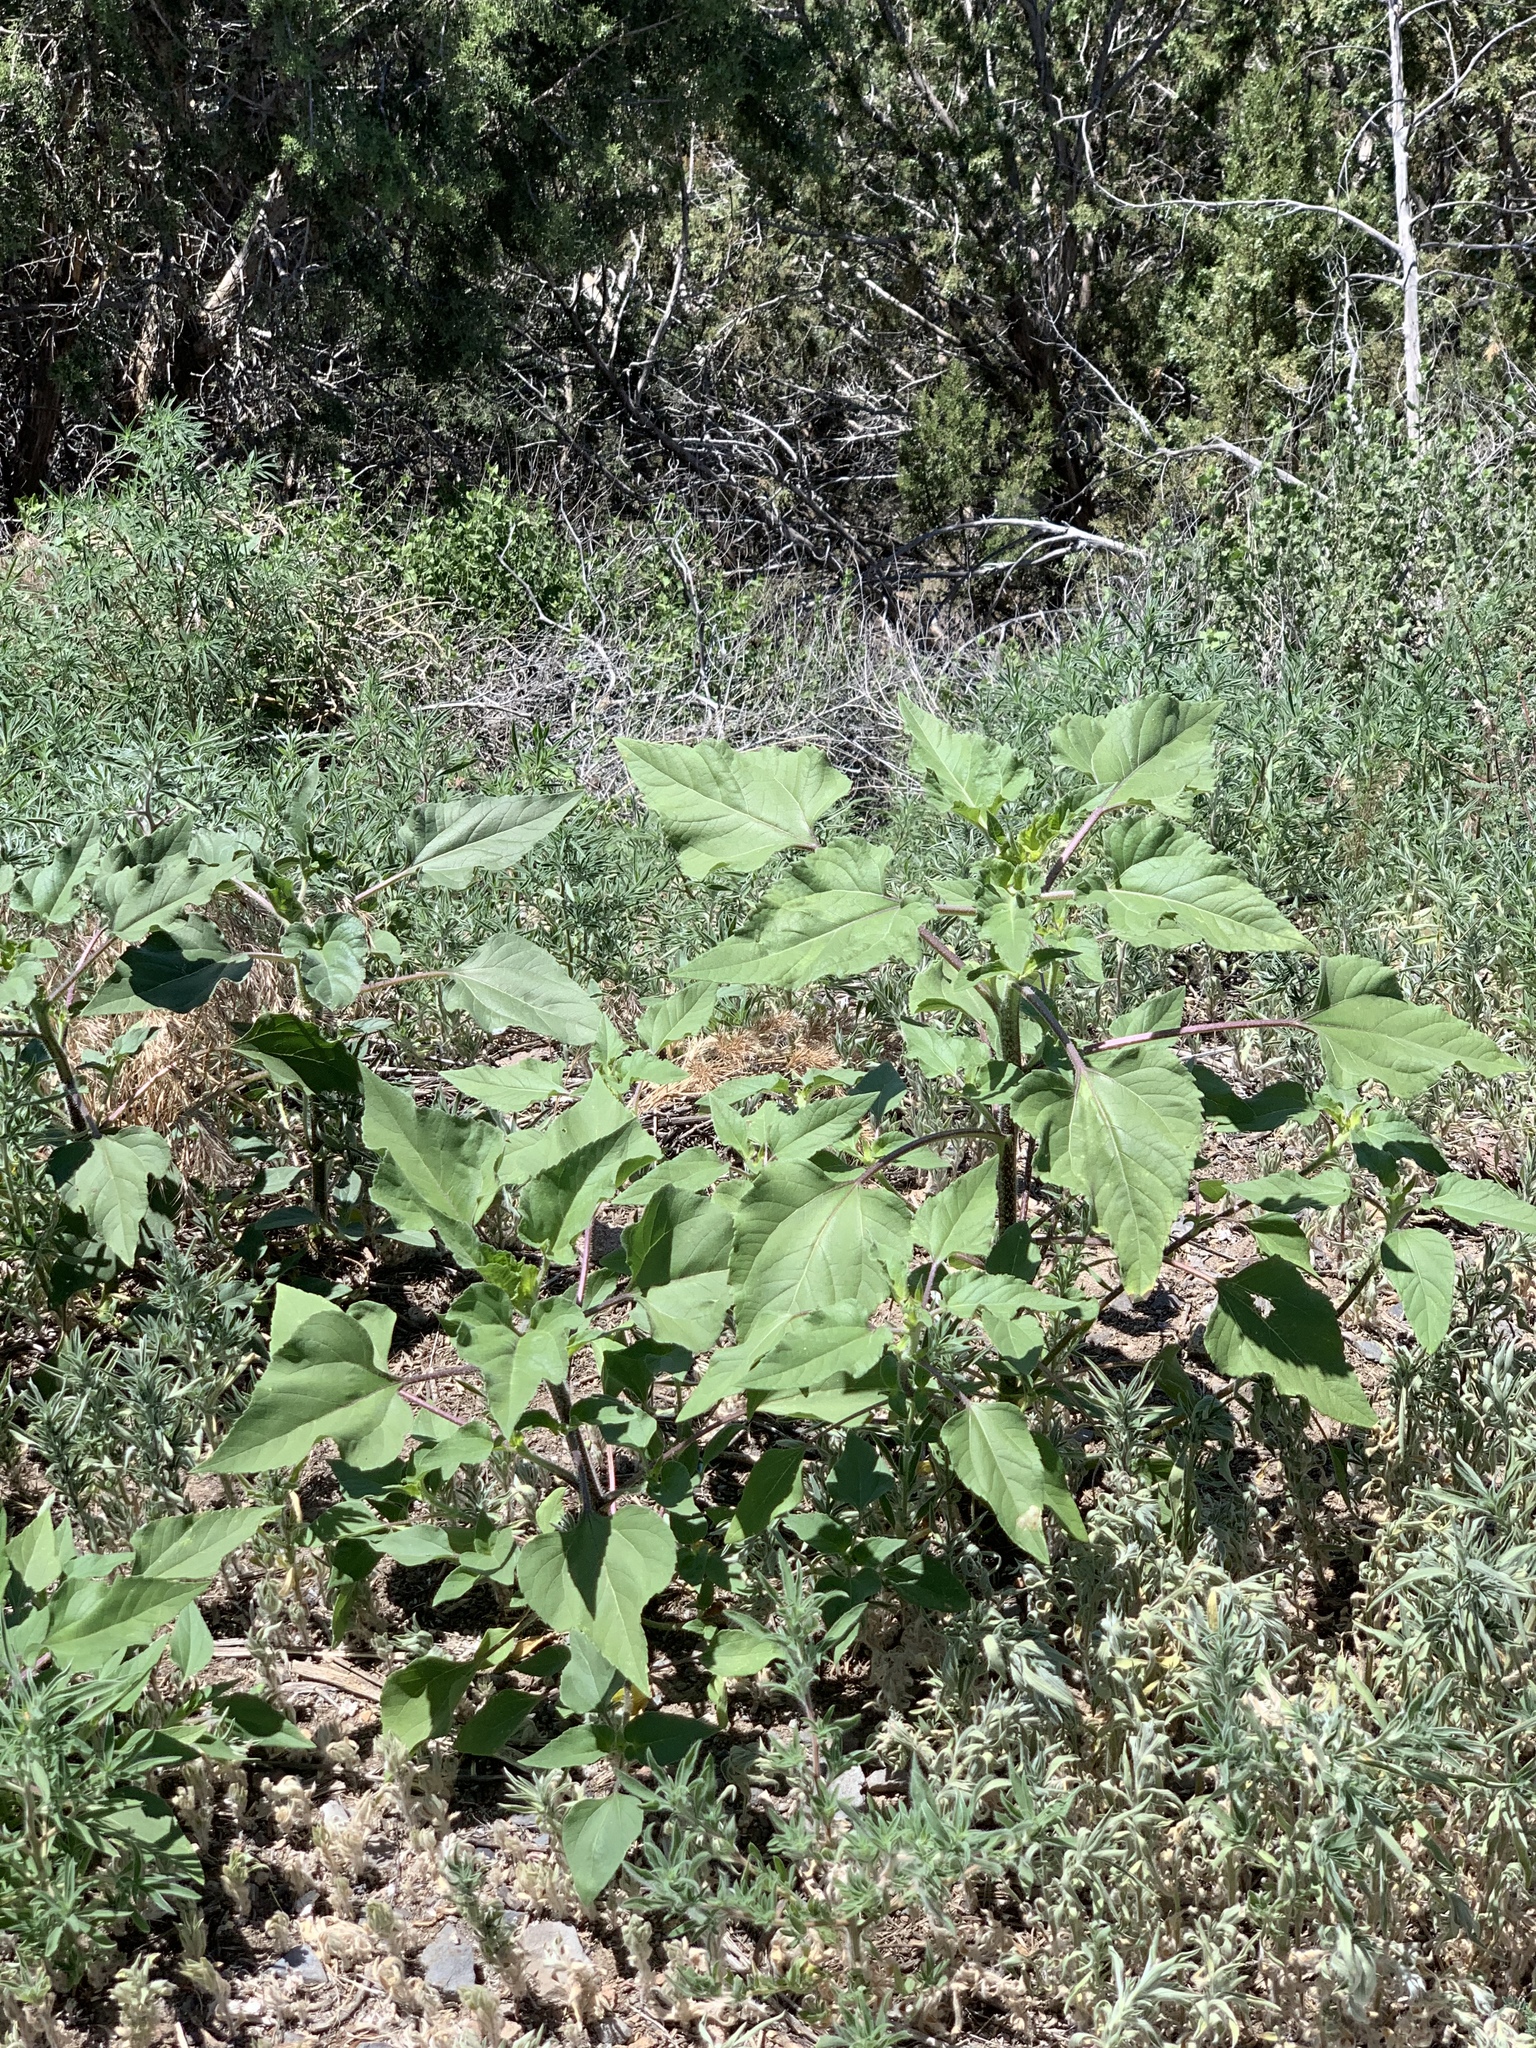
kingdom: Plantae
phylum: Tracheophyta
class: Magnoliopsida
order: Asterales
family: Asteraceae
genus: Helianthus
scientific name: Helianthus annuus
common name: Sunflower
